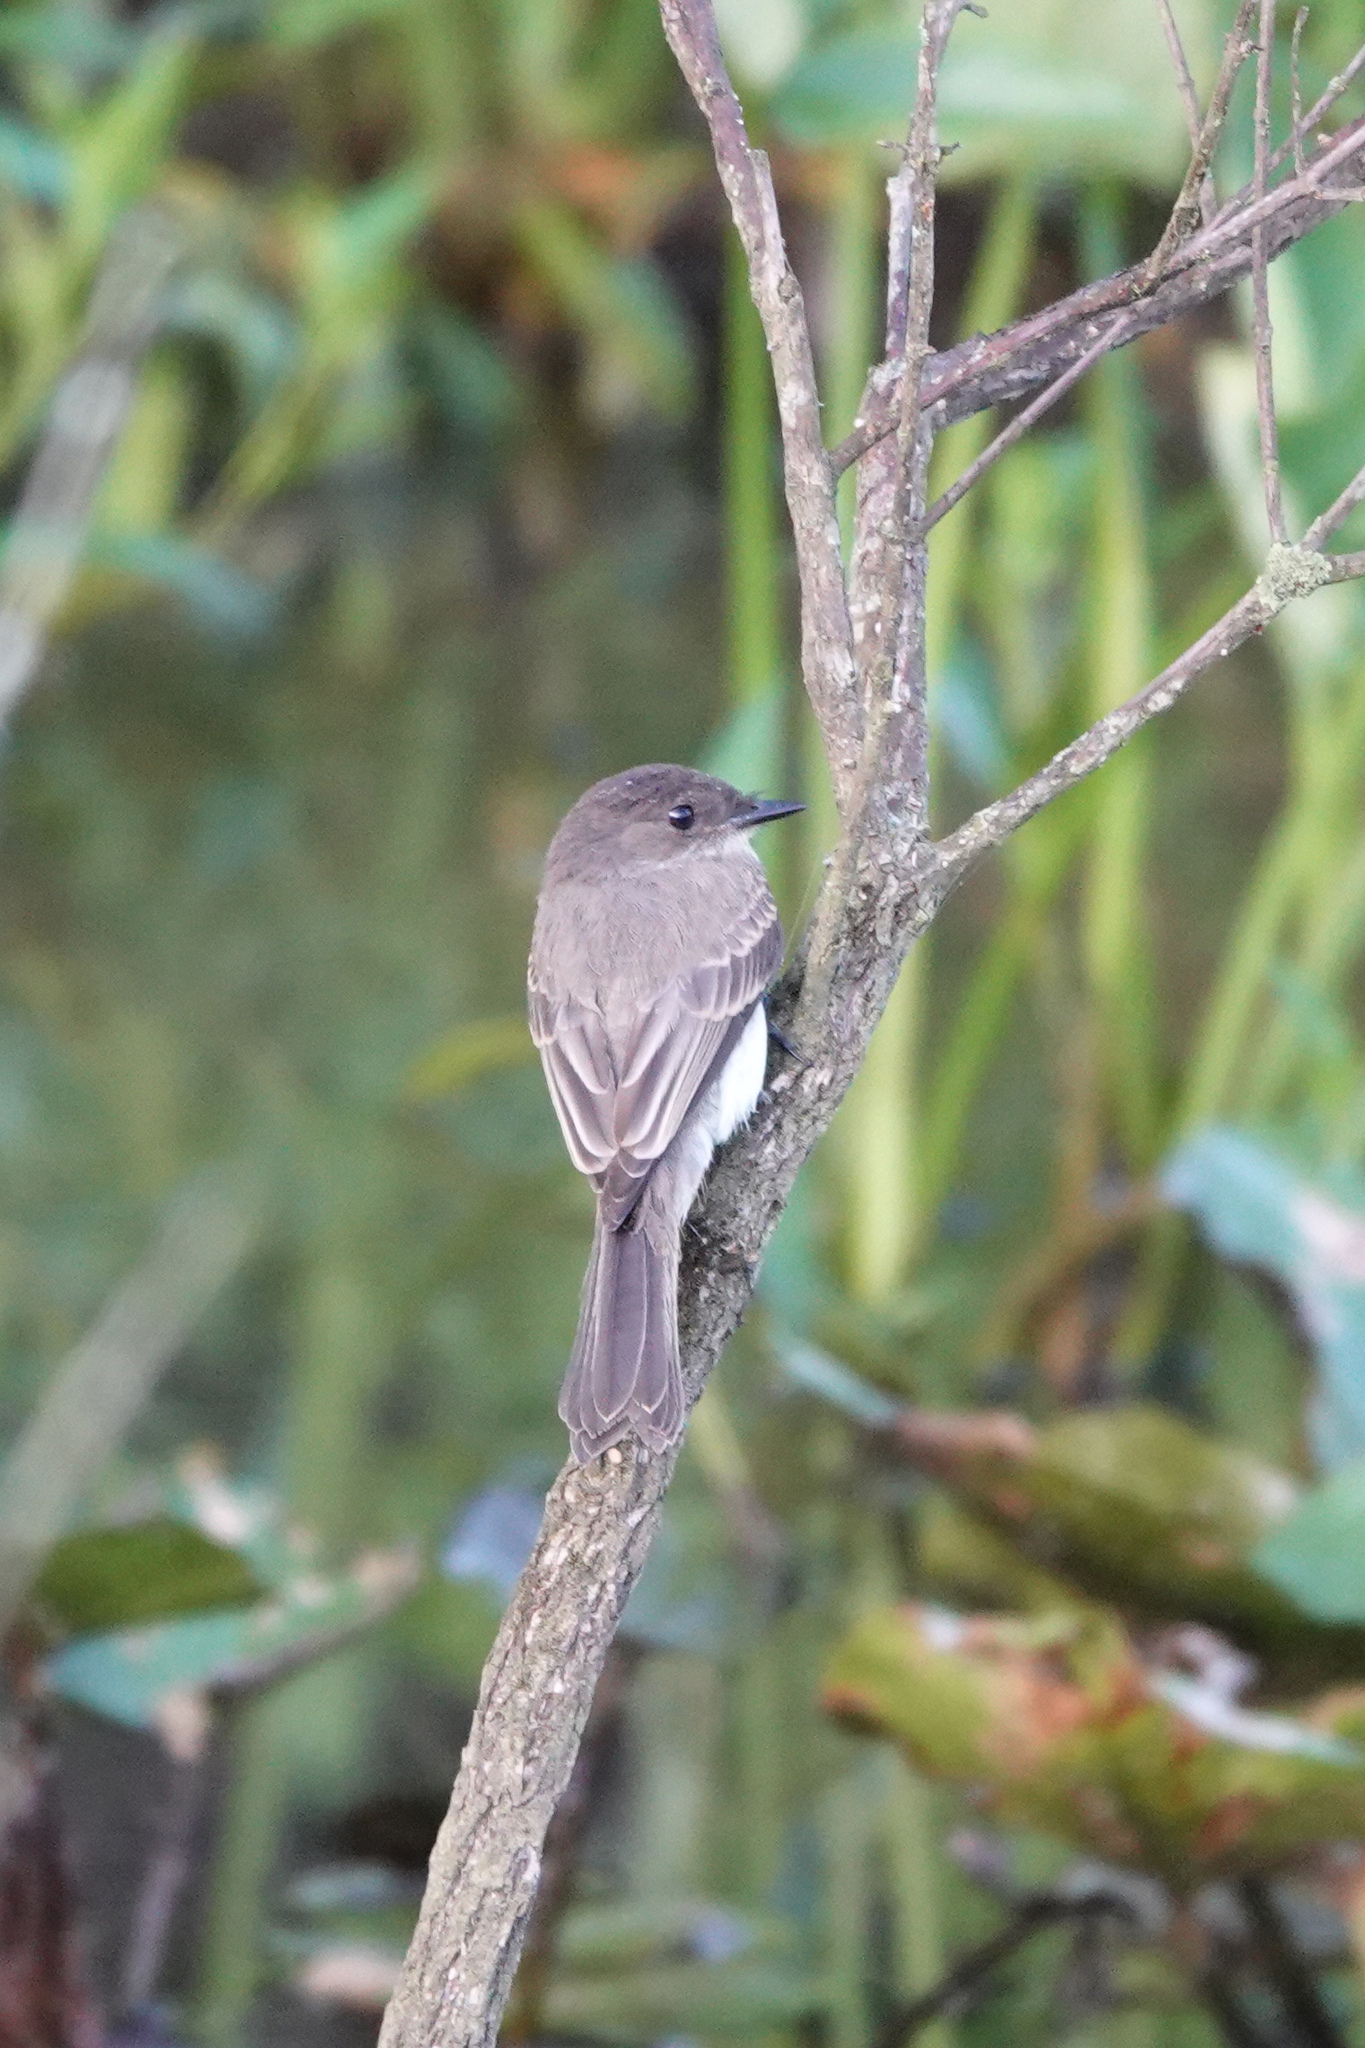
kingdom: Animalia
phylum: Chordata
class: Aves
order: Passeriformes
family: Tyrannidae
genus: Sayornis
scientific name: Sayornis phoebe
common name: Eastern phoebe
